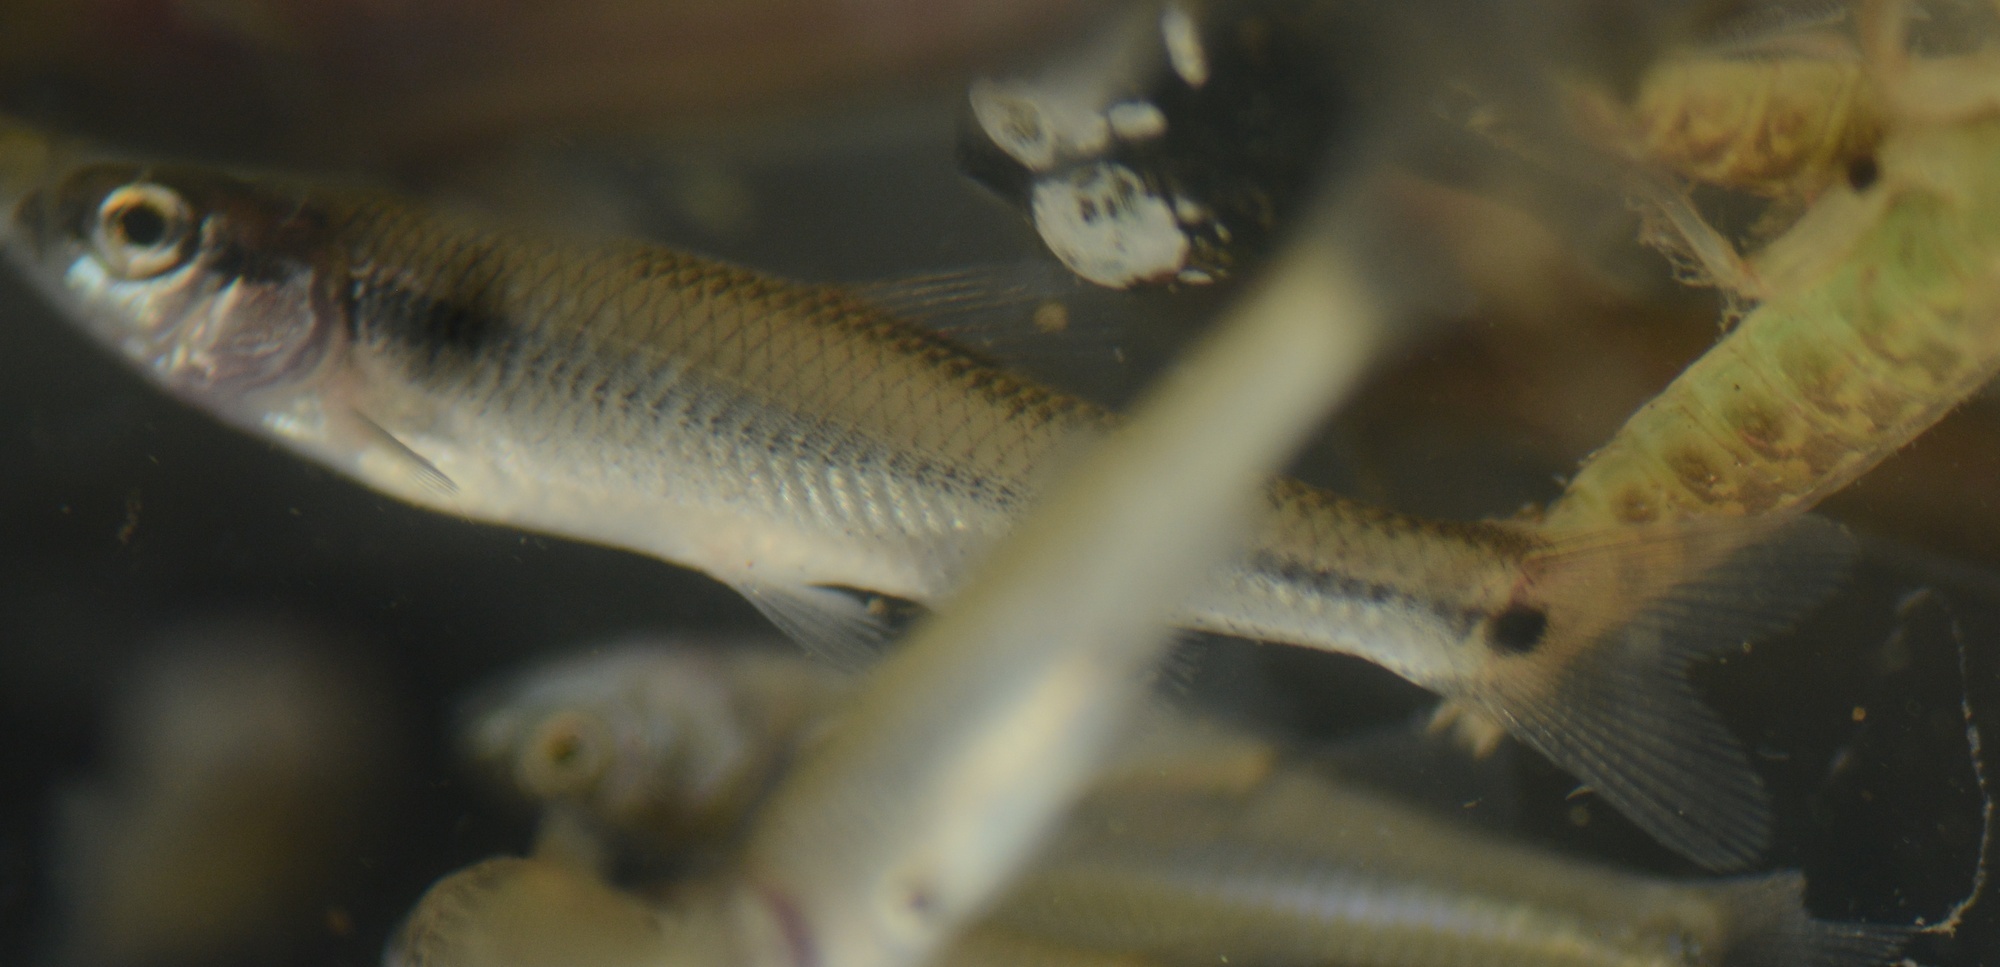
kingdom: Animalia
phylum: Chordata
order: Cypriniformes
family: Cyprinidae
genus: Pimephales
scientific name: Pimephales notatus
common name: Bluntnose minnow
